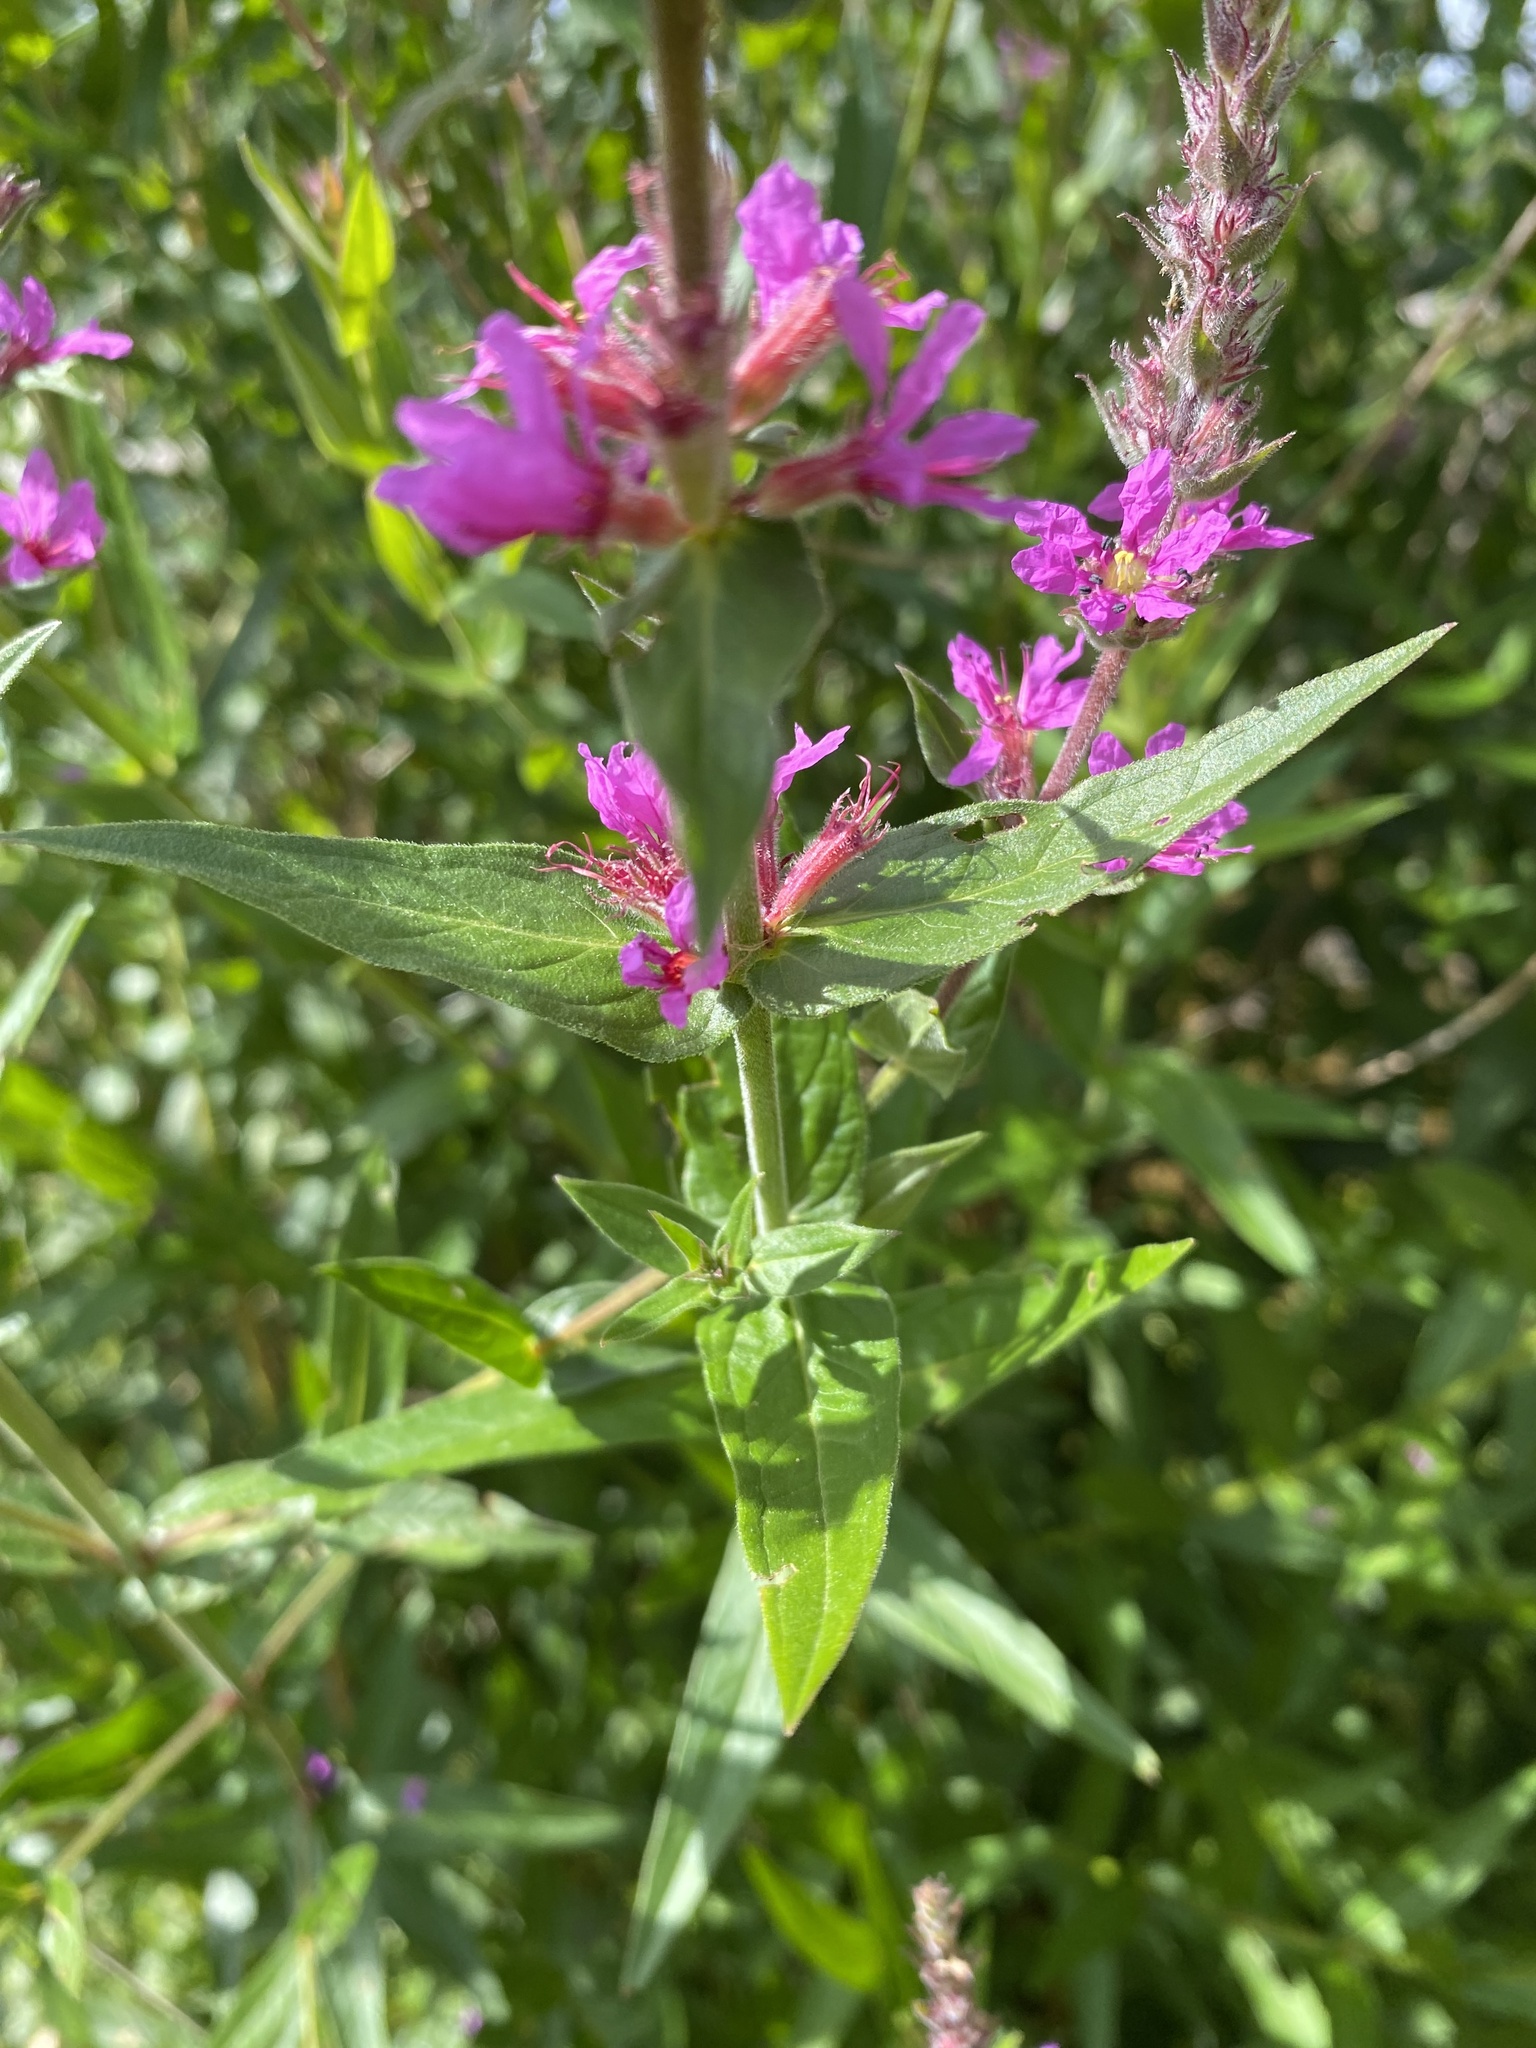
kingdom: Plantae
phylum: Tracheophyta
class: Magnoliopsida
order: Myrtales
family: Lythraceae
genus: Lythrum
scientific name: Lythrum salicaria
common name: Purple loosestrife
